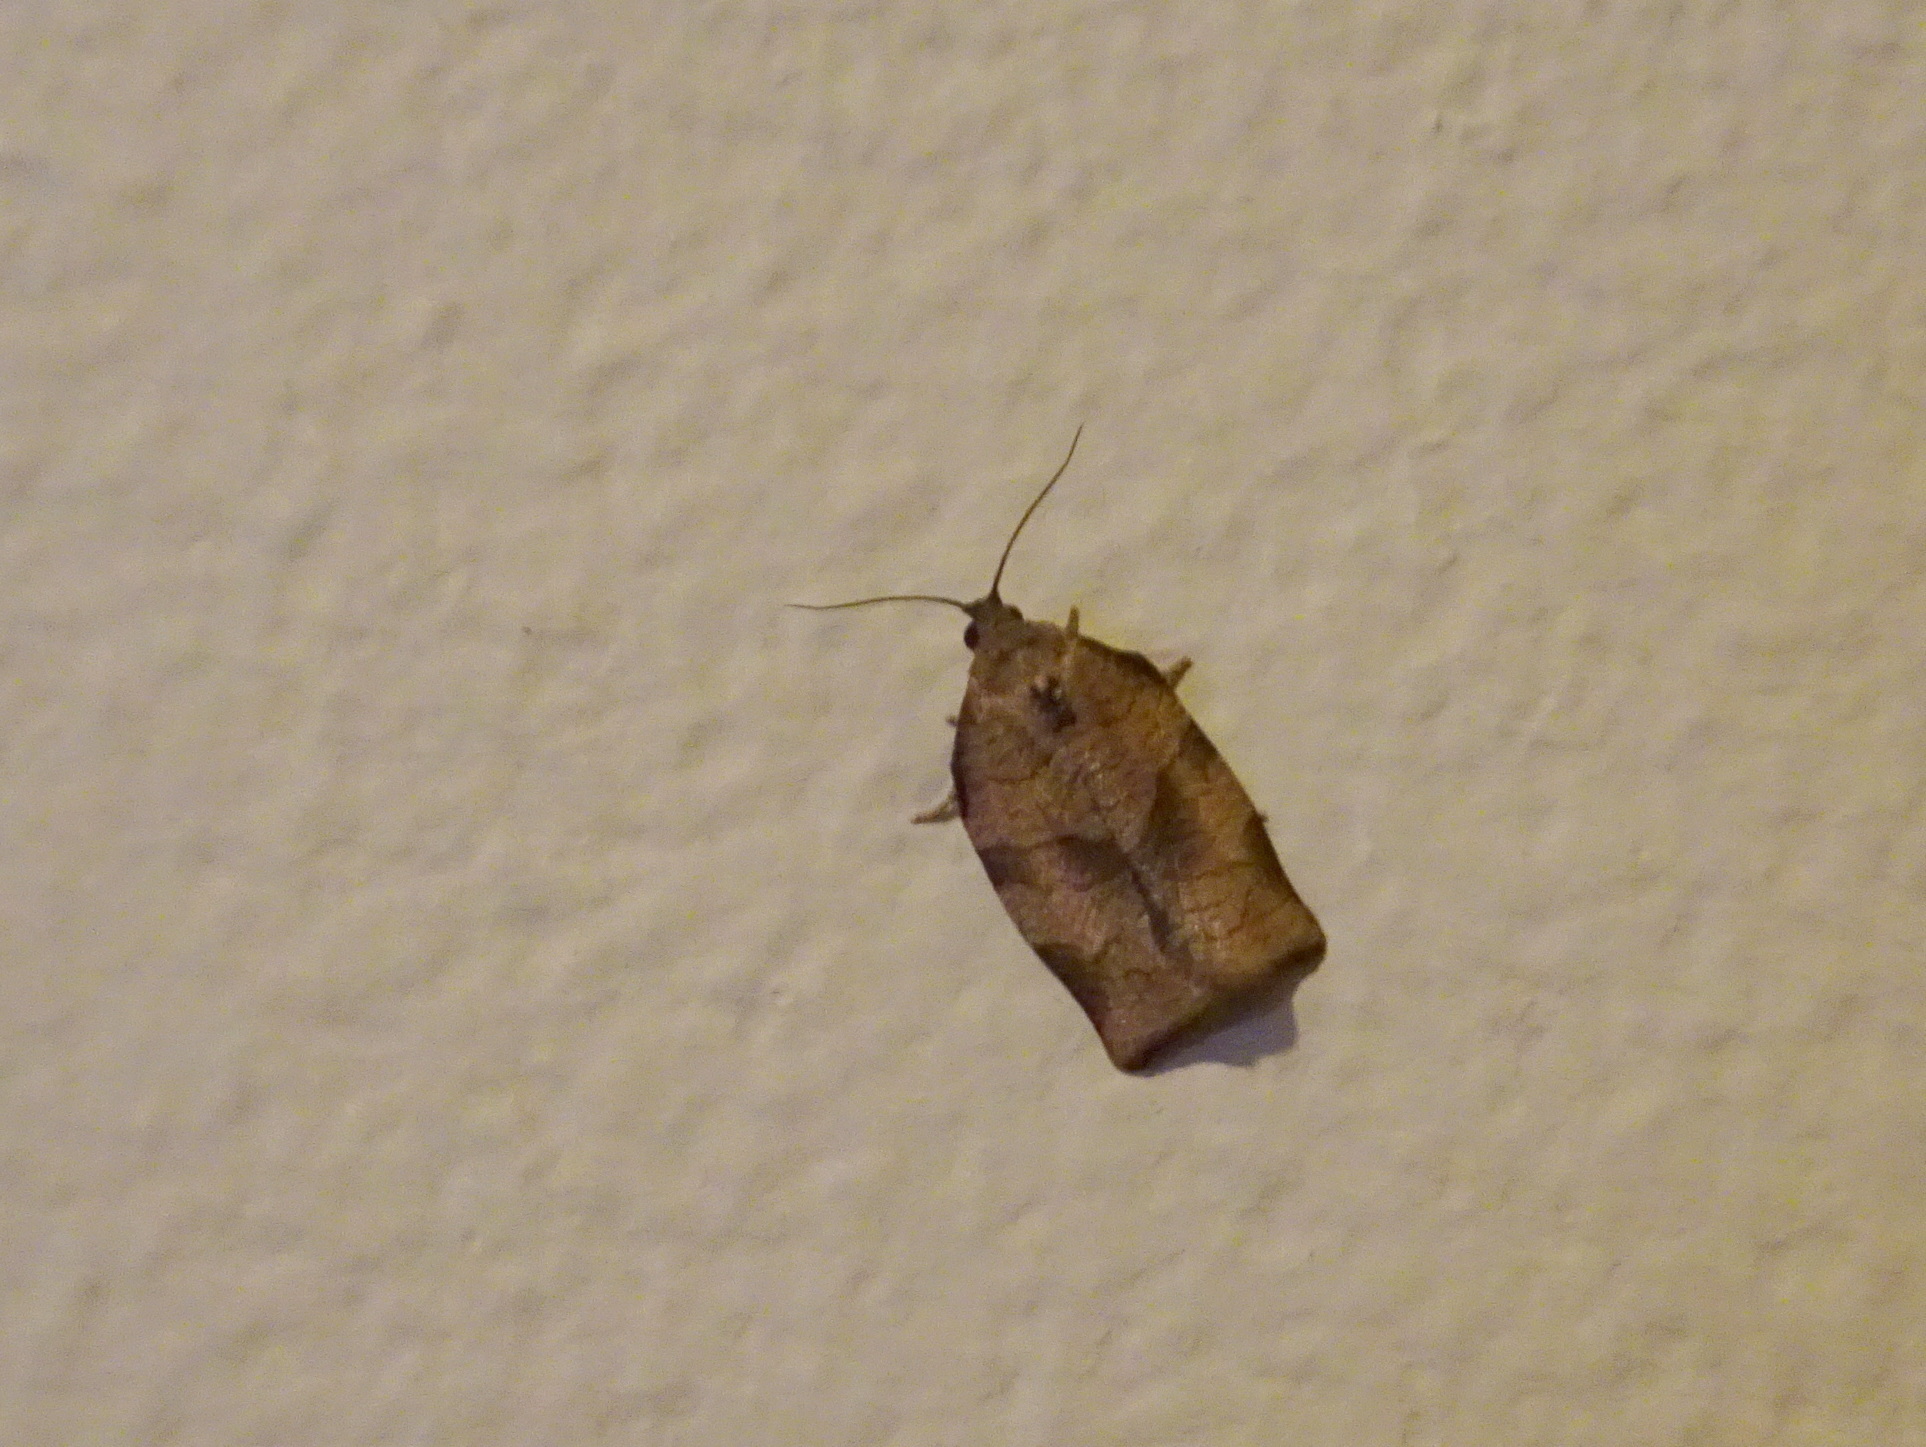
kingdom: Animalia
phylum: Arthropoda
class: Insecta
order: Lepidoptera
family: Tortricidae
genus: Choristoneura
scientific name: Choristoneura rosaceana
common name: Oblique-banded leafroller moth
